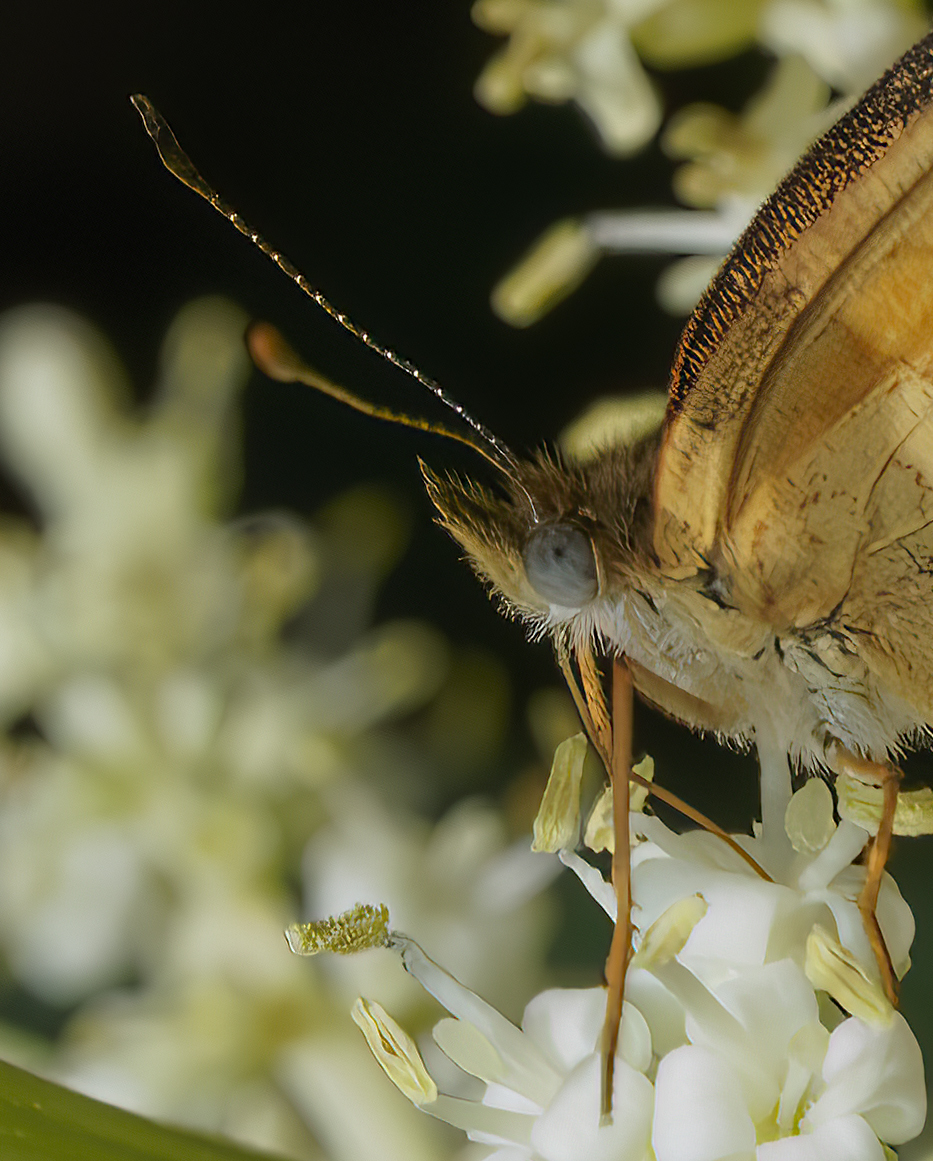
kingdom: Animalia
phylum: Arthropoda
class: Insecta
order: Lepidoptera
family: Nymphalidae
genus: Tegosa
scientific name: Tegosa claudina
